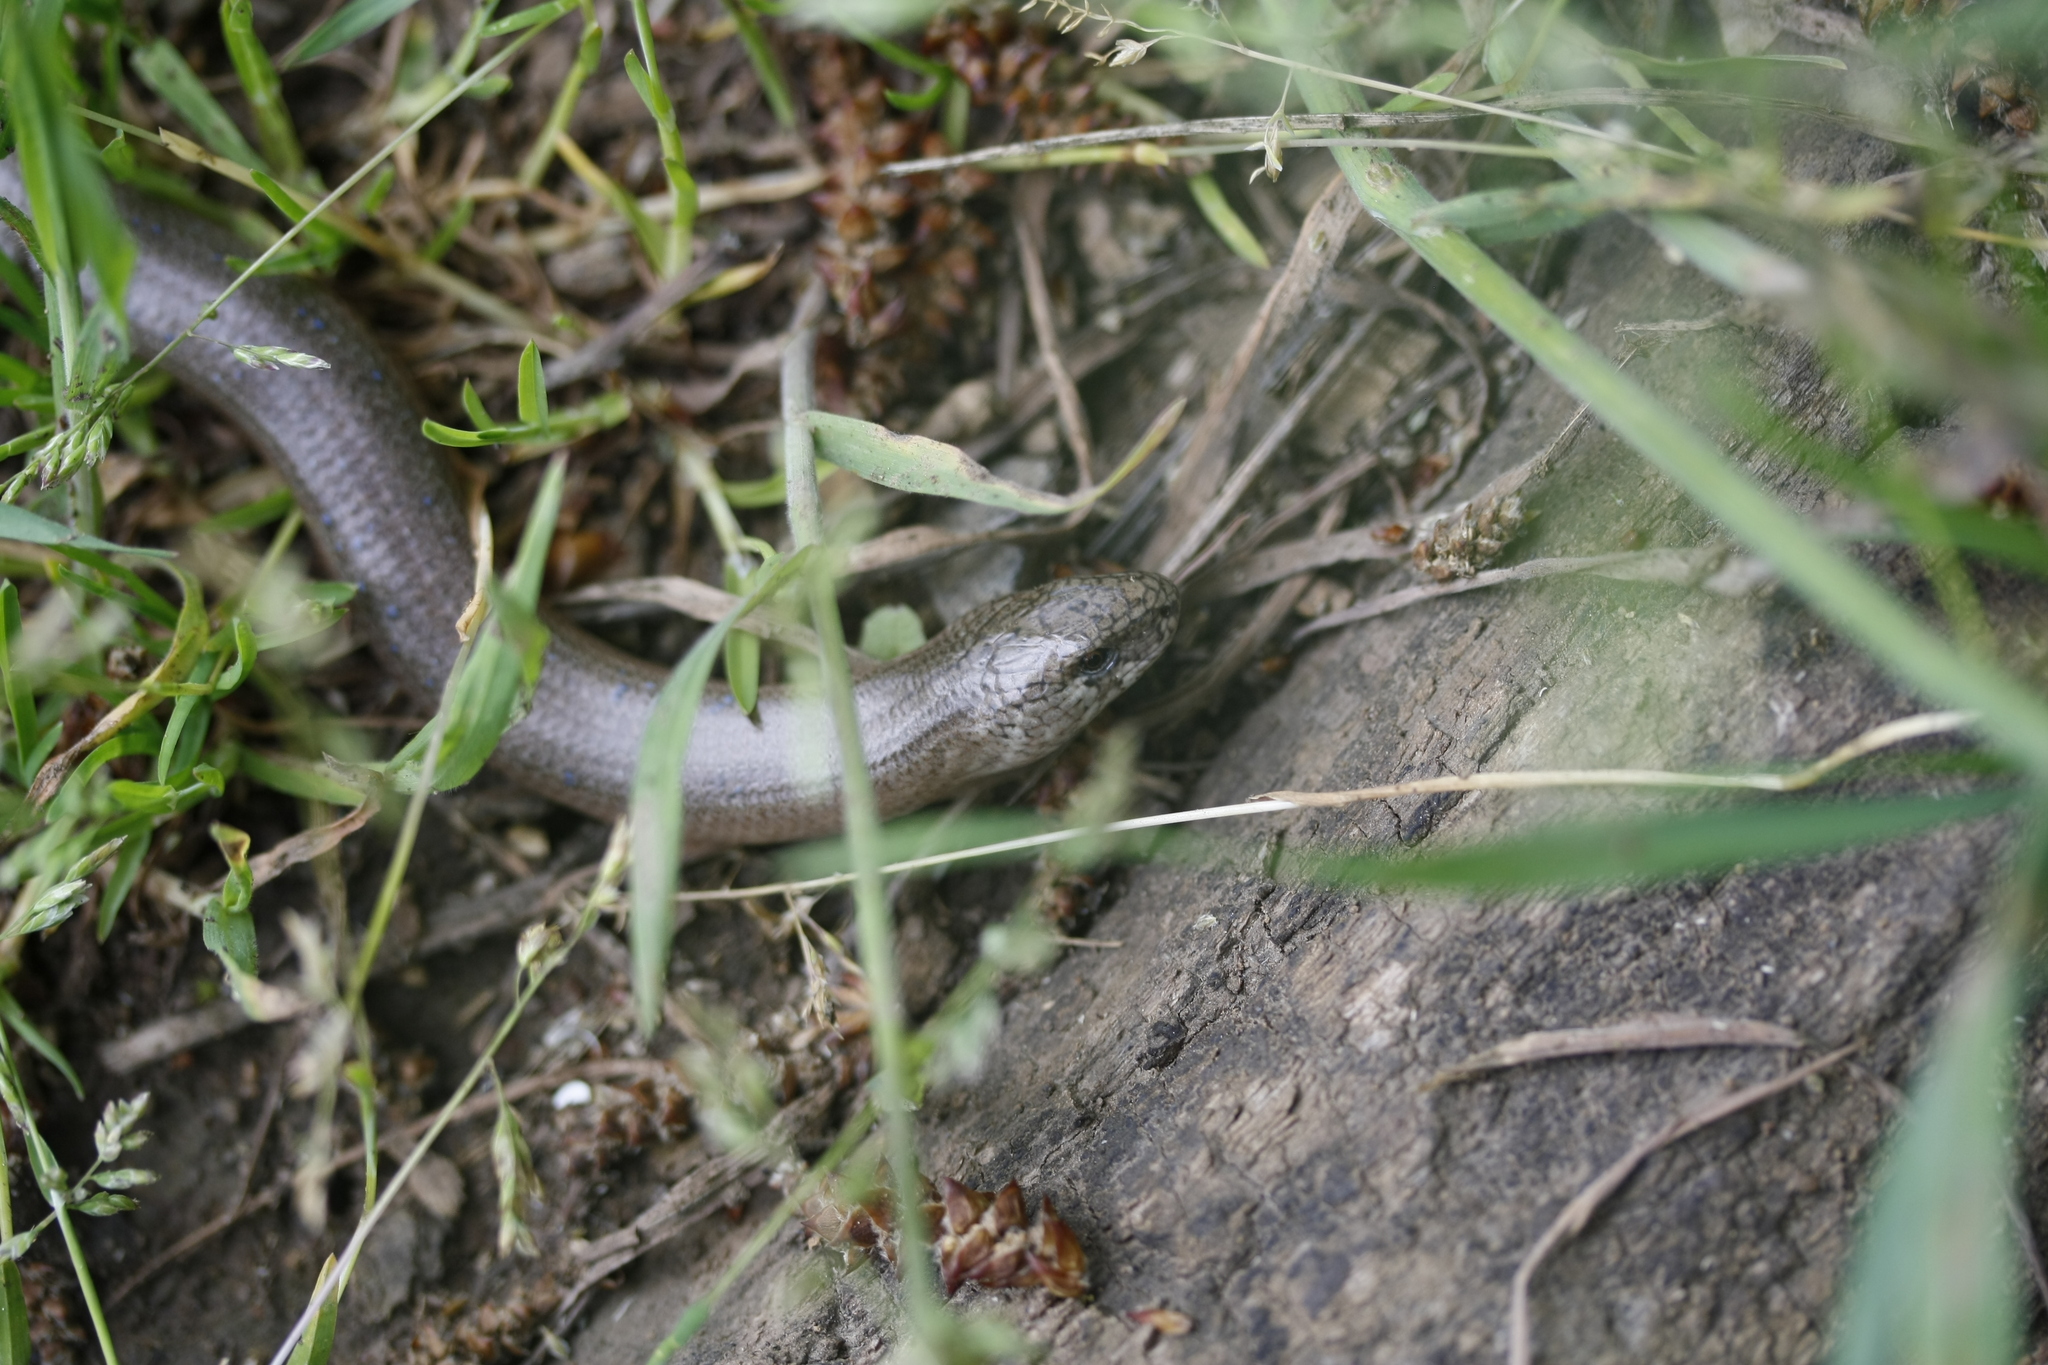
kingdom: Animalia
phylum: Chordata
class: Squamata
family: Anguidae
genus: Anguis
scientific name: Anguis fragilis
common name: Slow worm
